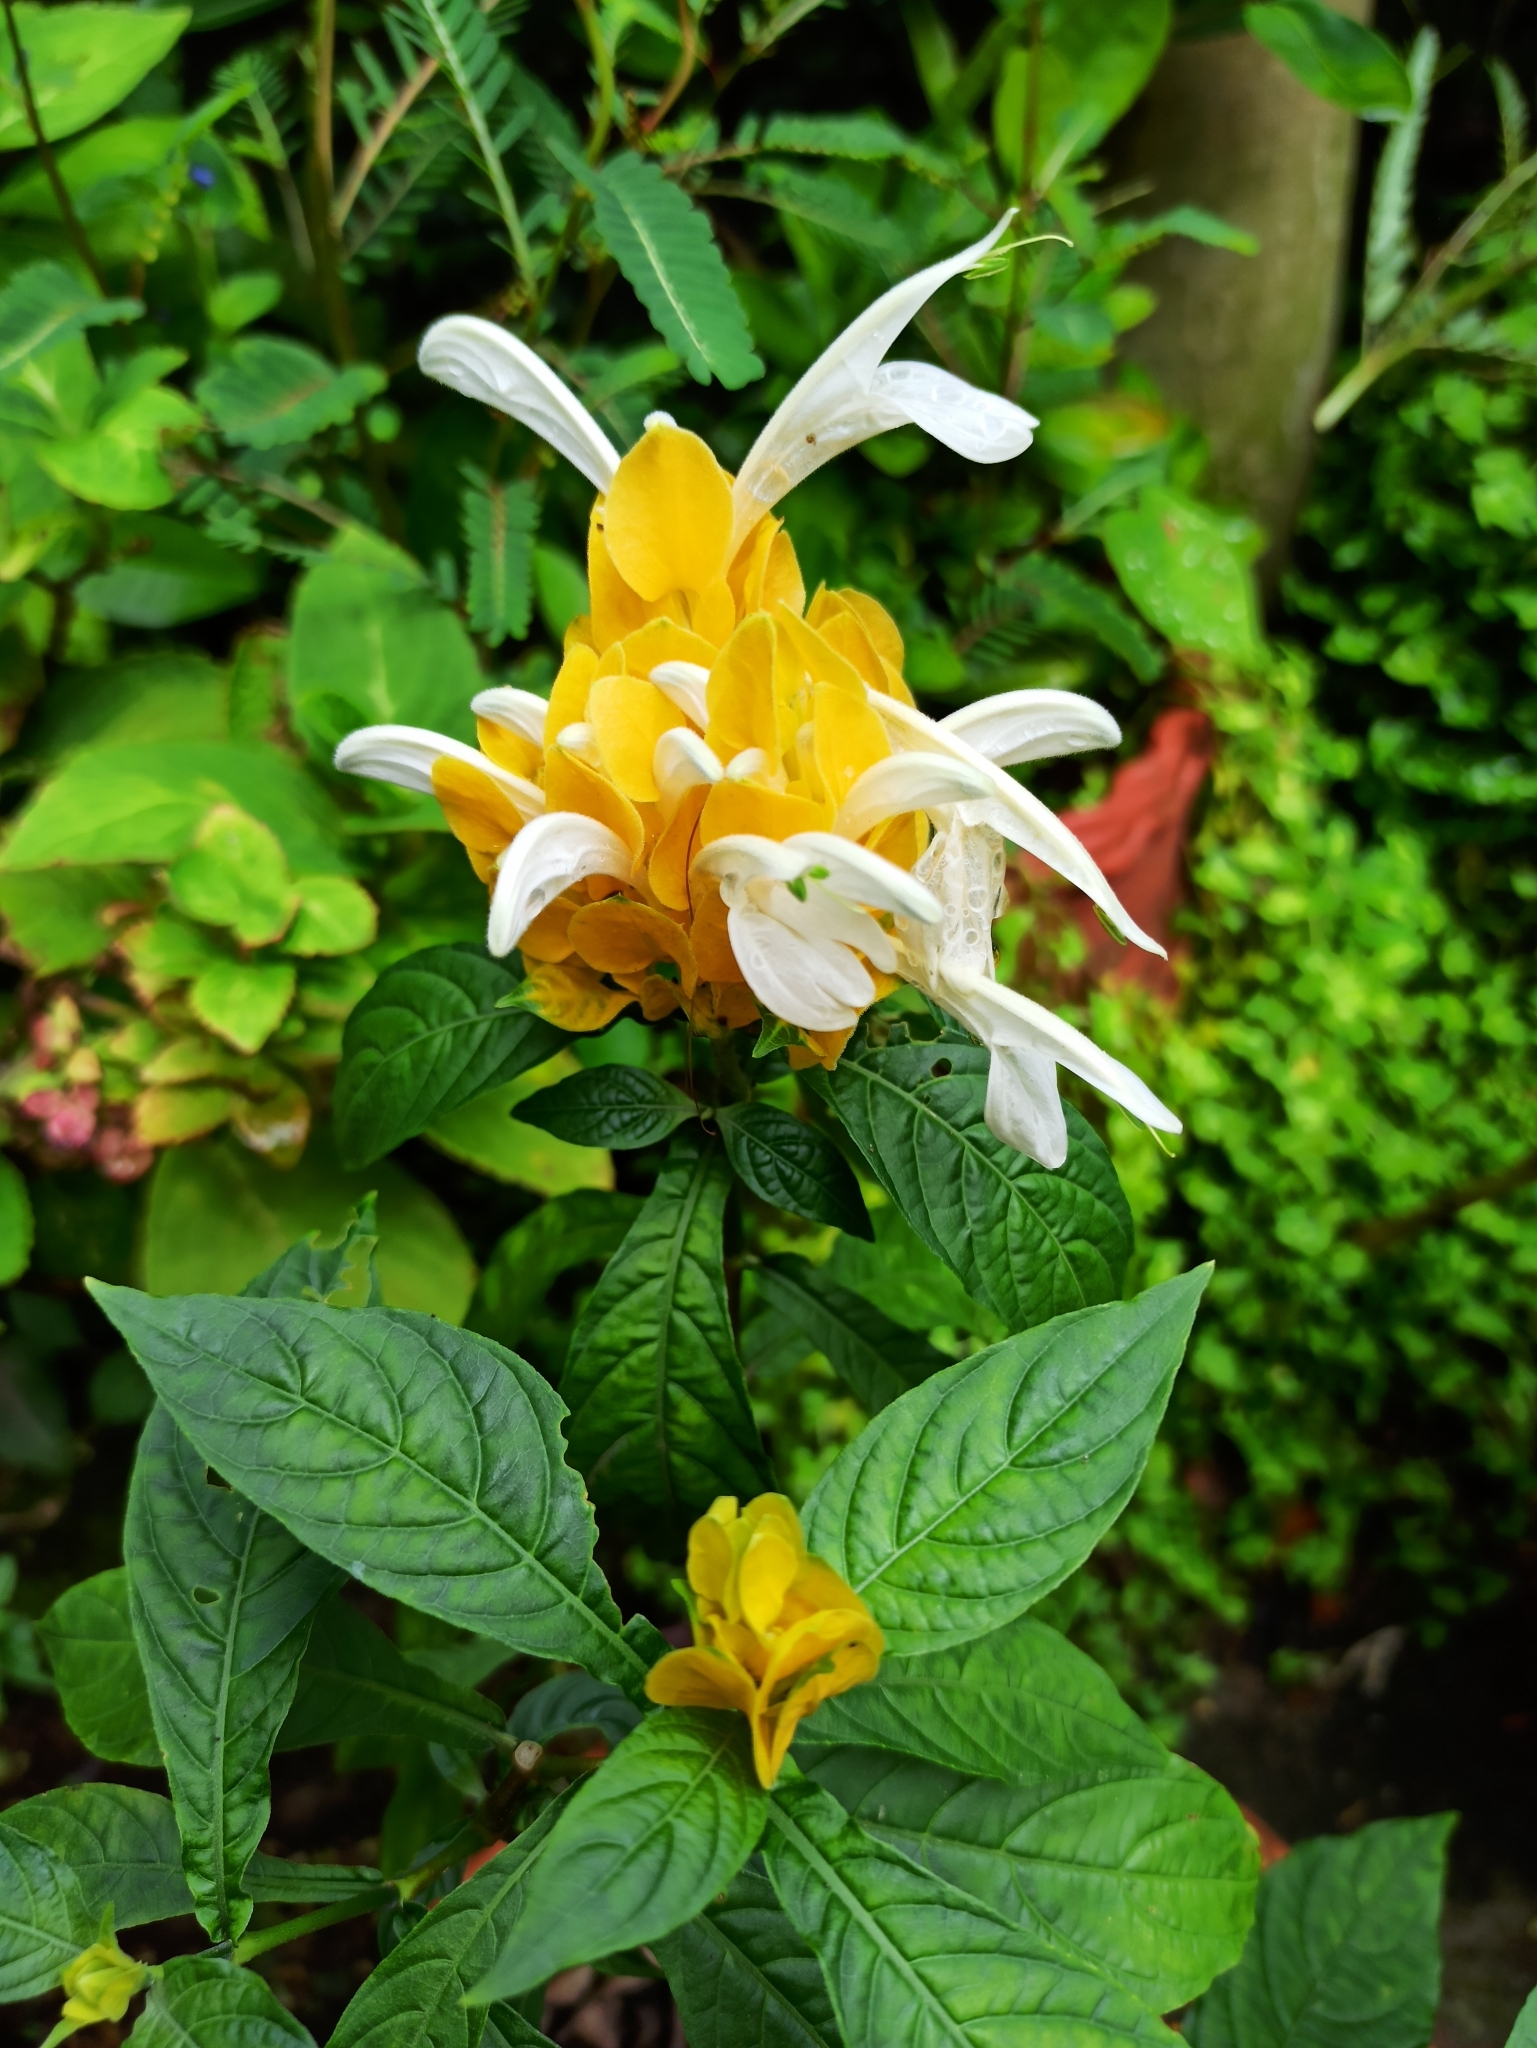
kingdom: Plantae
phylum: Tracheophyta
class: Magnoliopsida
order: Lamiales
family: Acanthaceae
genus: Pachystachys
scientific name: Pachystachys lutea
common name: Golden shrimp-plant
